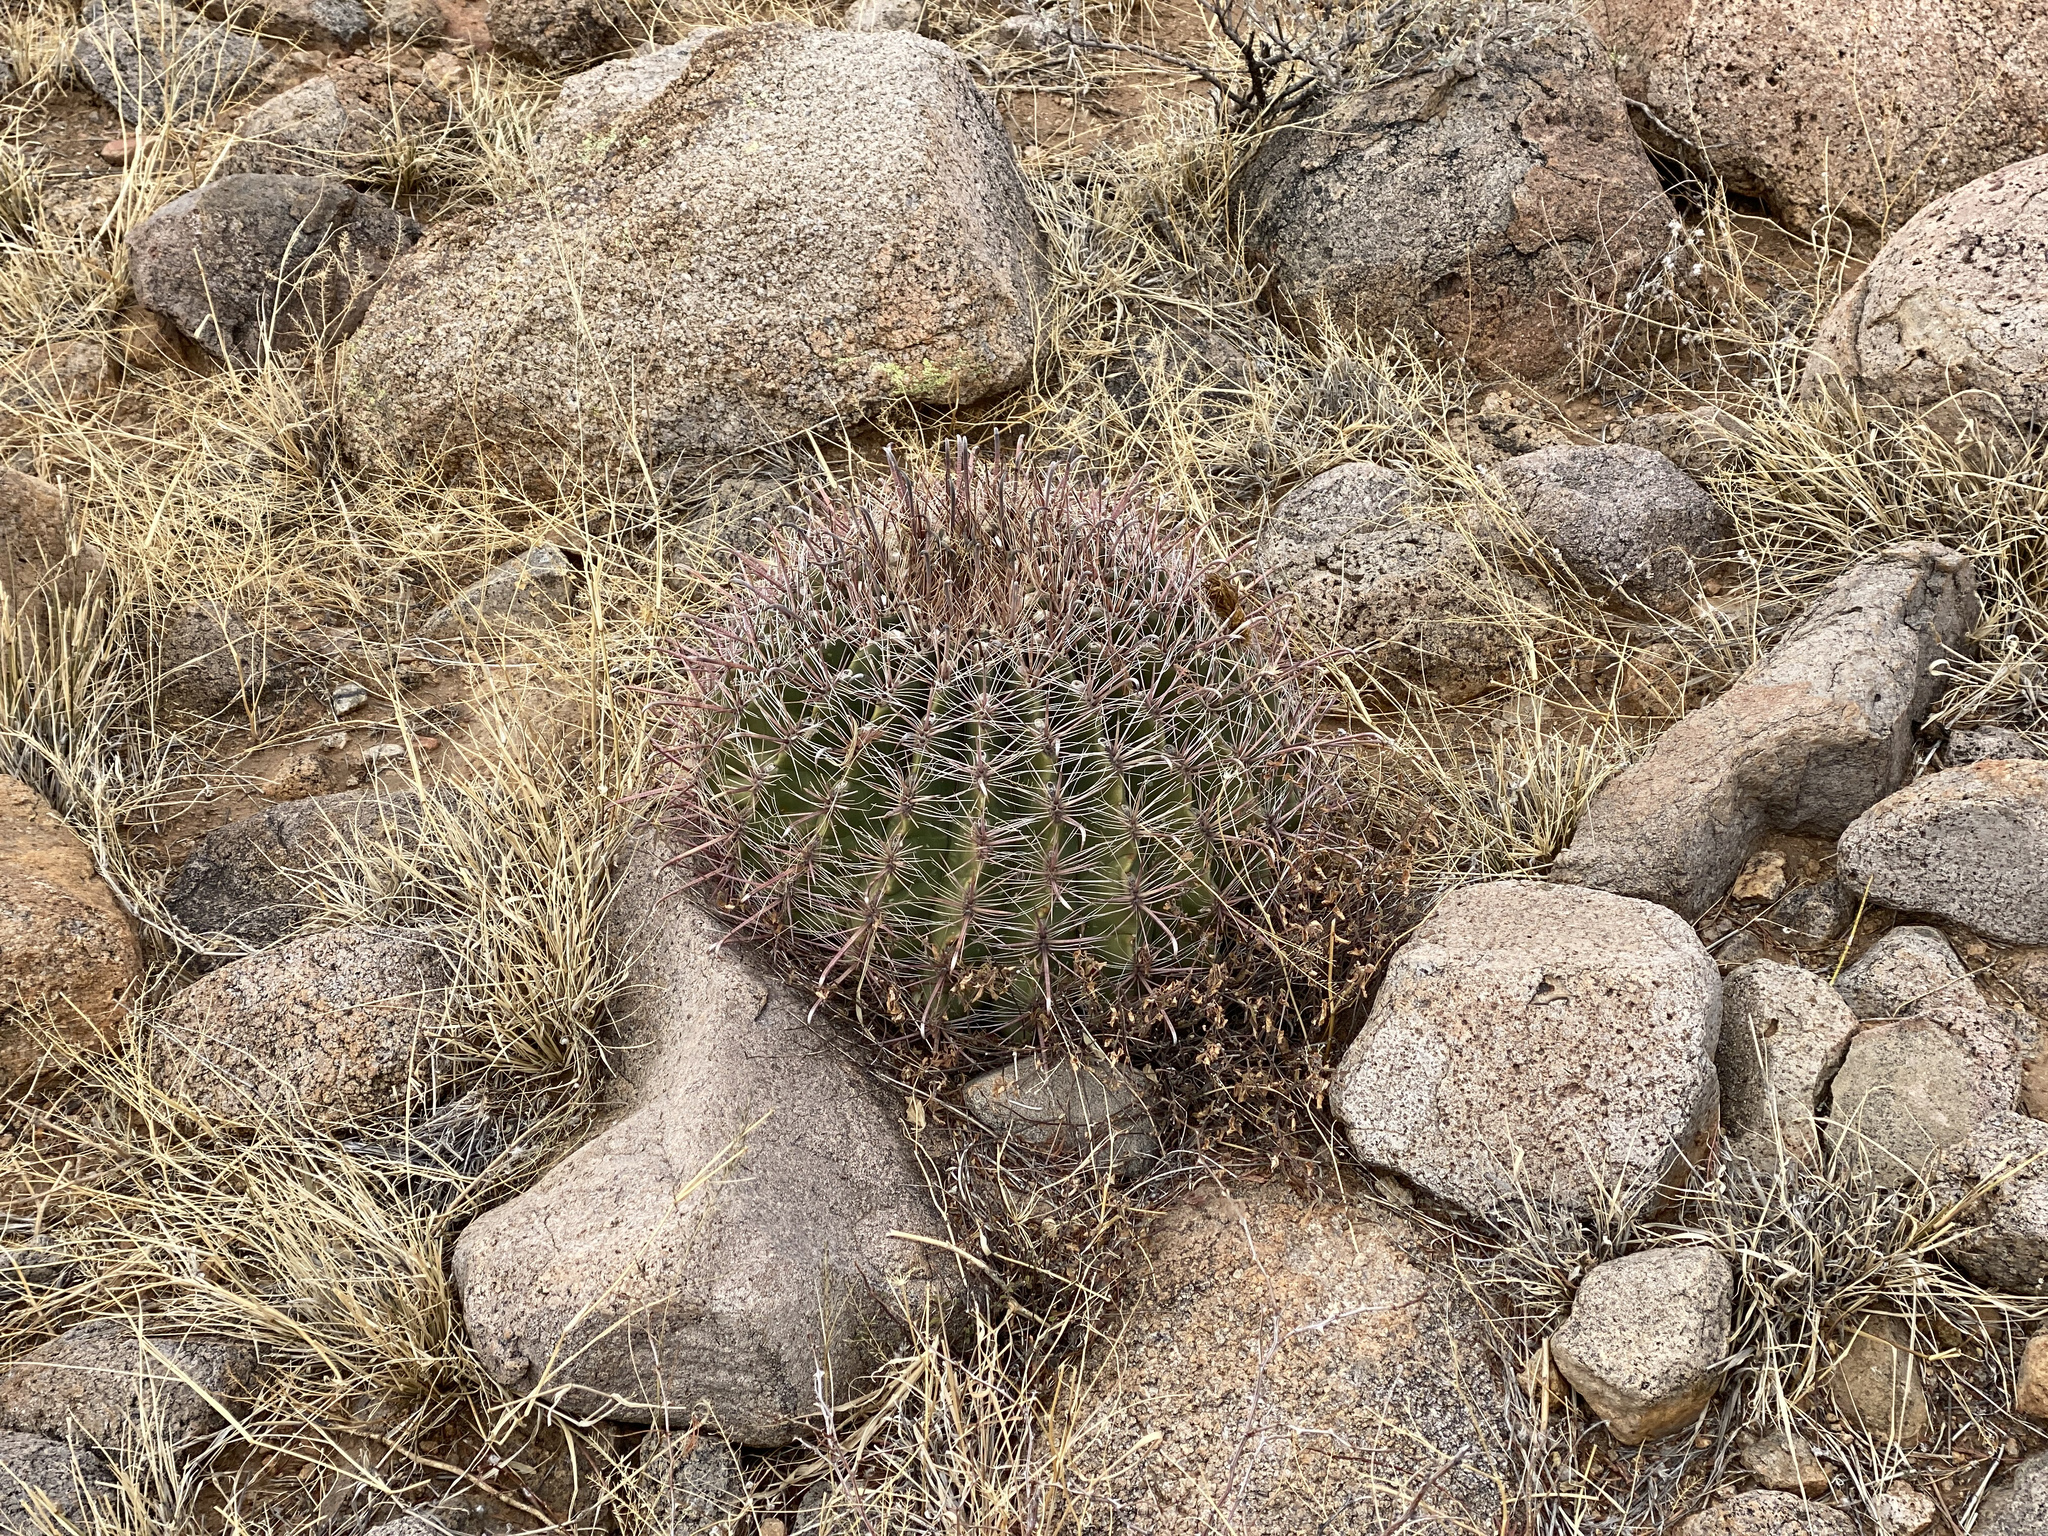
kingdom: Plantae
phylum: Tracheophyta
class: Magnoliopsida
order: Caryophyllales
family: Cactaceae
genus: Ferocactus
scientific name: Ferocactus wislizeni
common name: Candy barrel cactus
